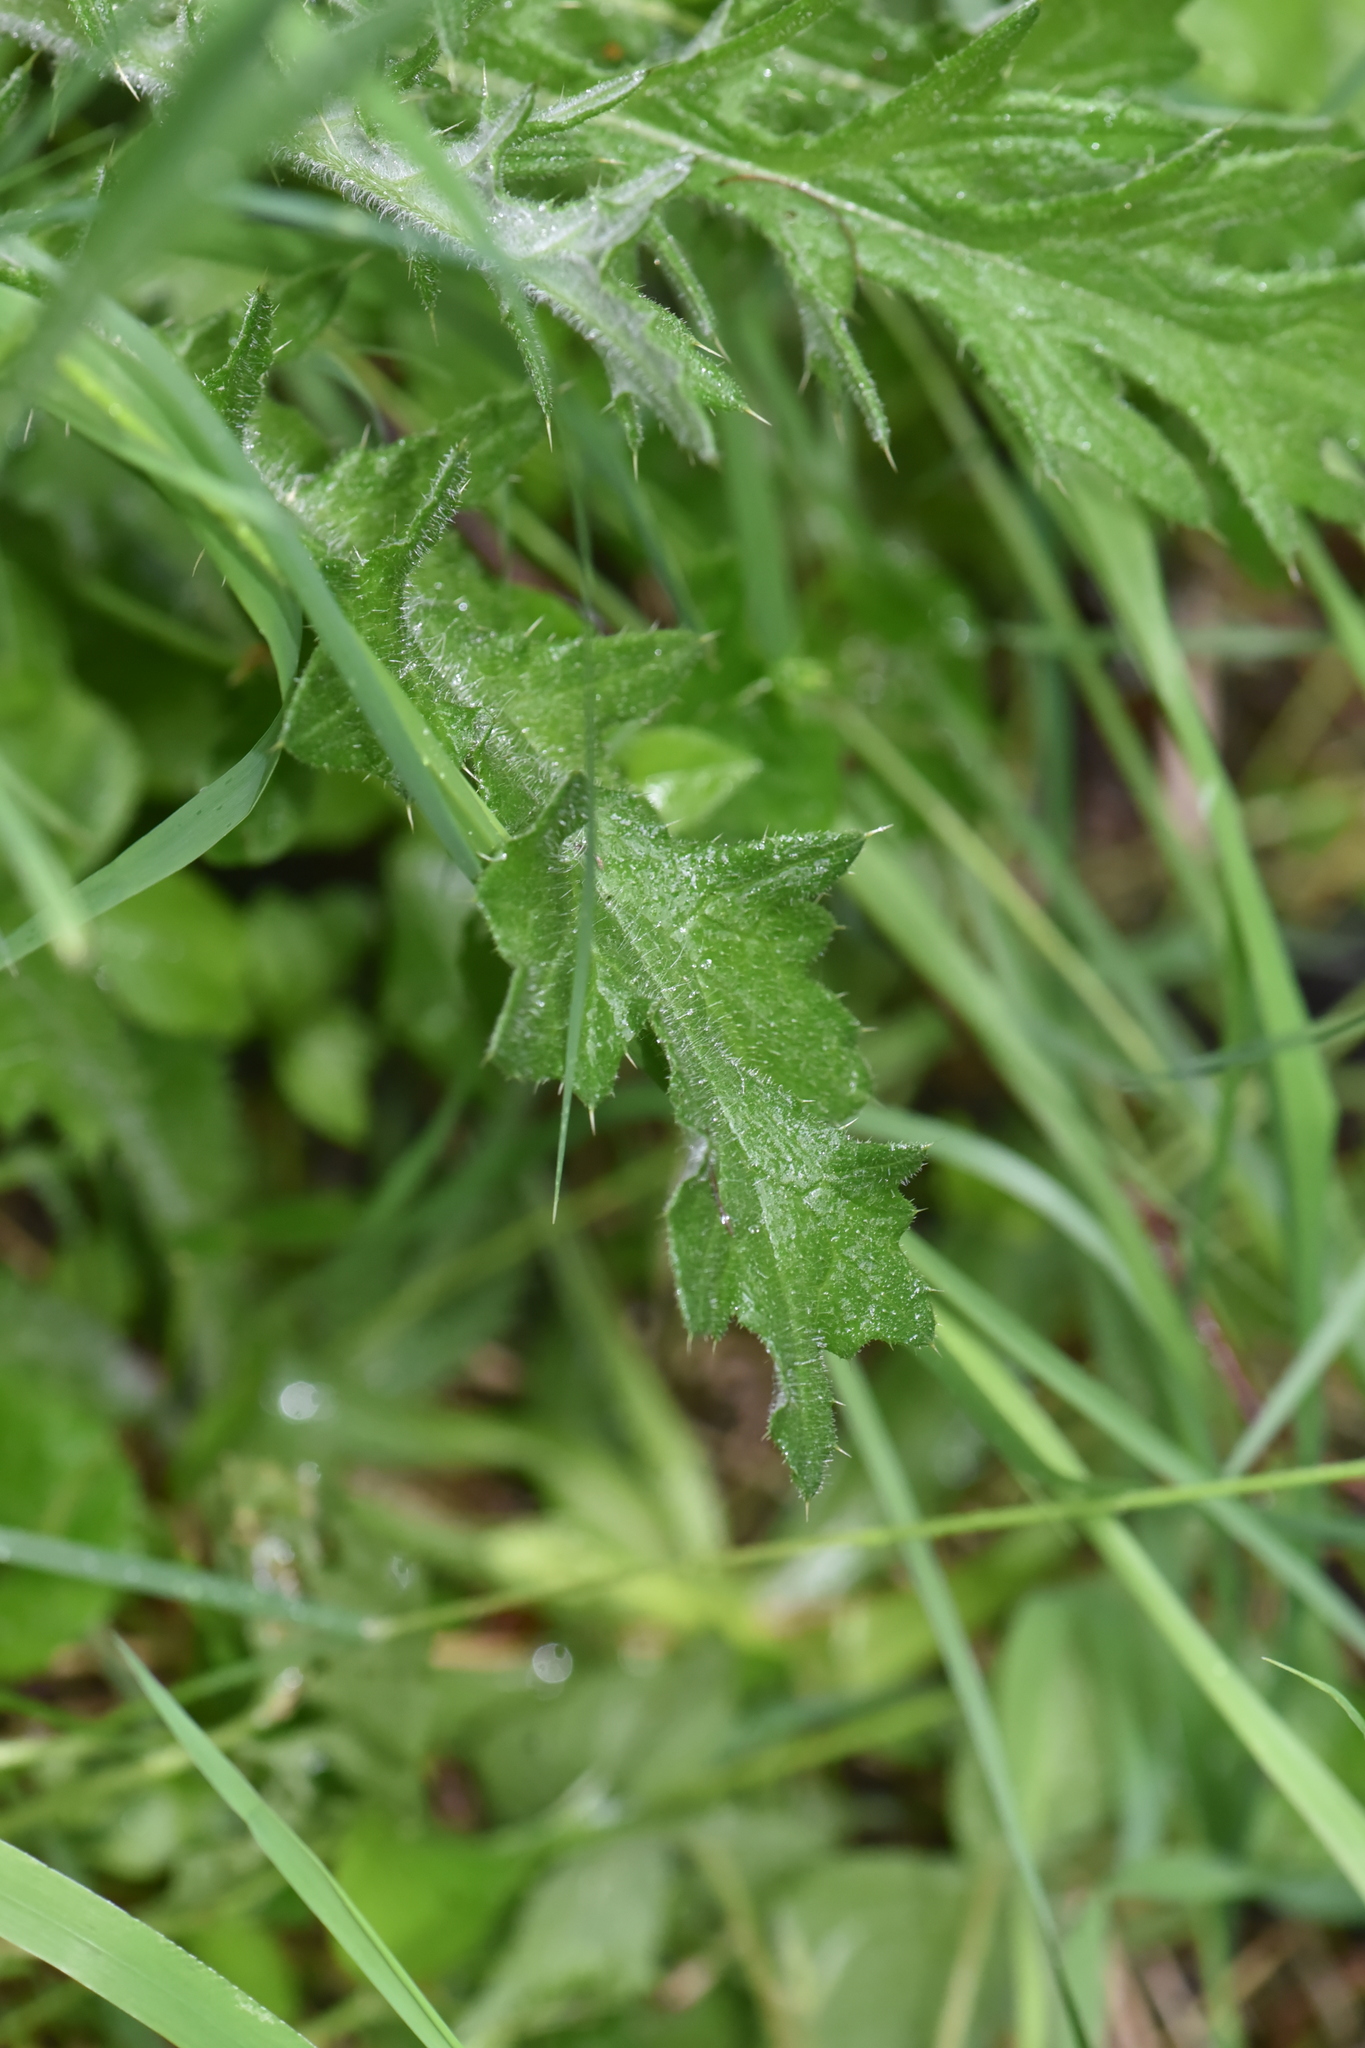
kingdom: Plantae
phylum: Tracheophyta
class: Magnoliopsida
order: Asterales
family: Asteraceae
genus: Cirsium
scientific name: Cirsium vulgare
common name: Bull thistle
